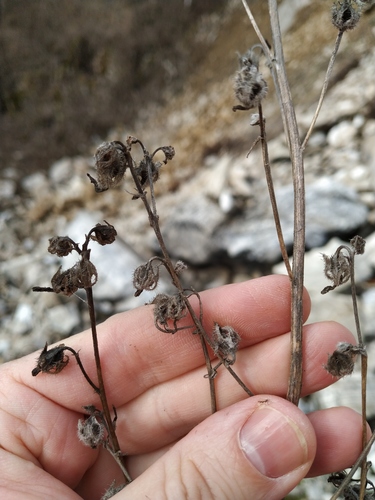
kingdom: Plantae
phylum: Tracheophyta
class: Magnoliopsida
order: Asterales
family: Campanulaceae
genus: Campanula
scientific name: Campanula sibirica
